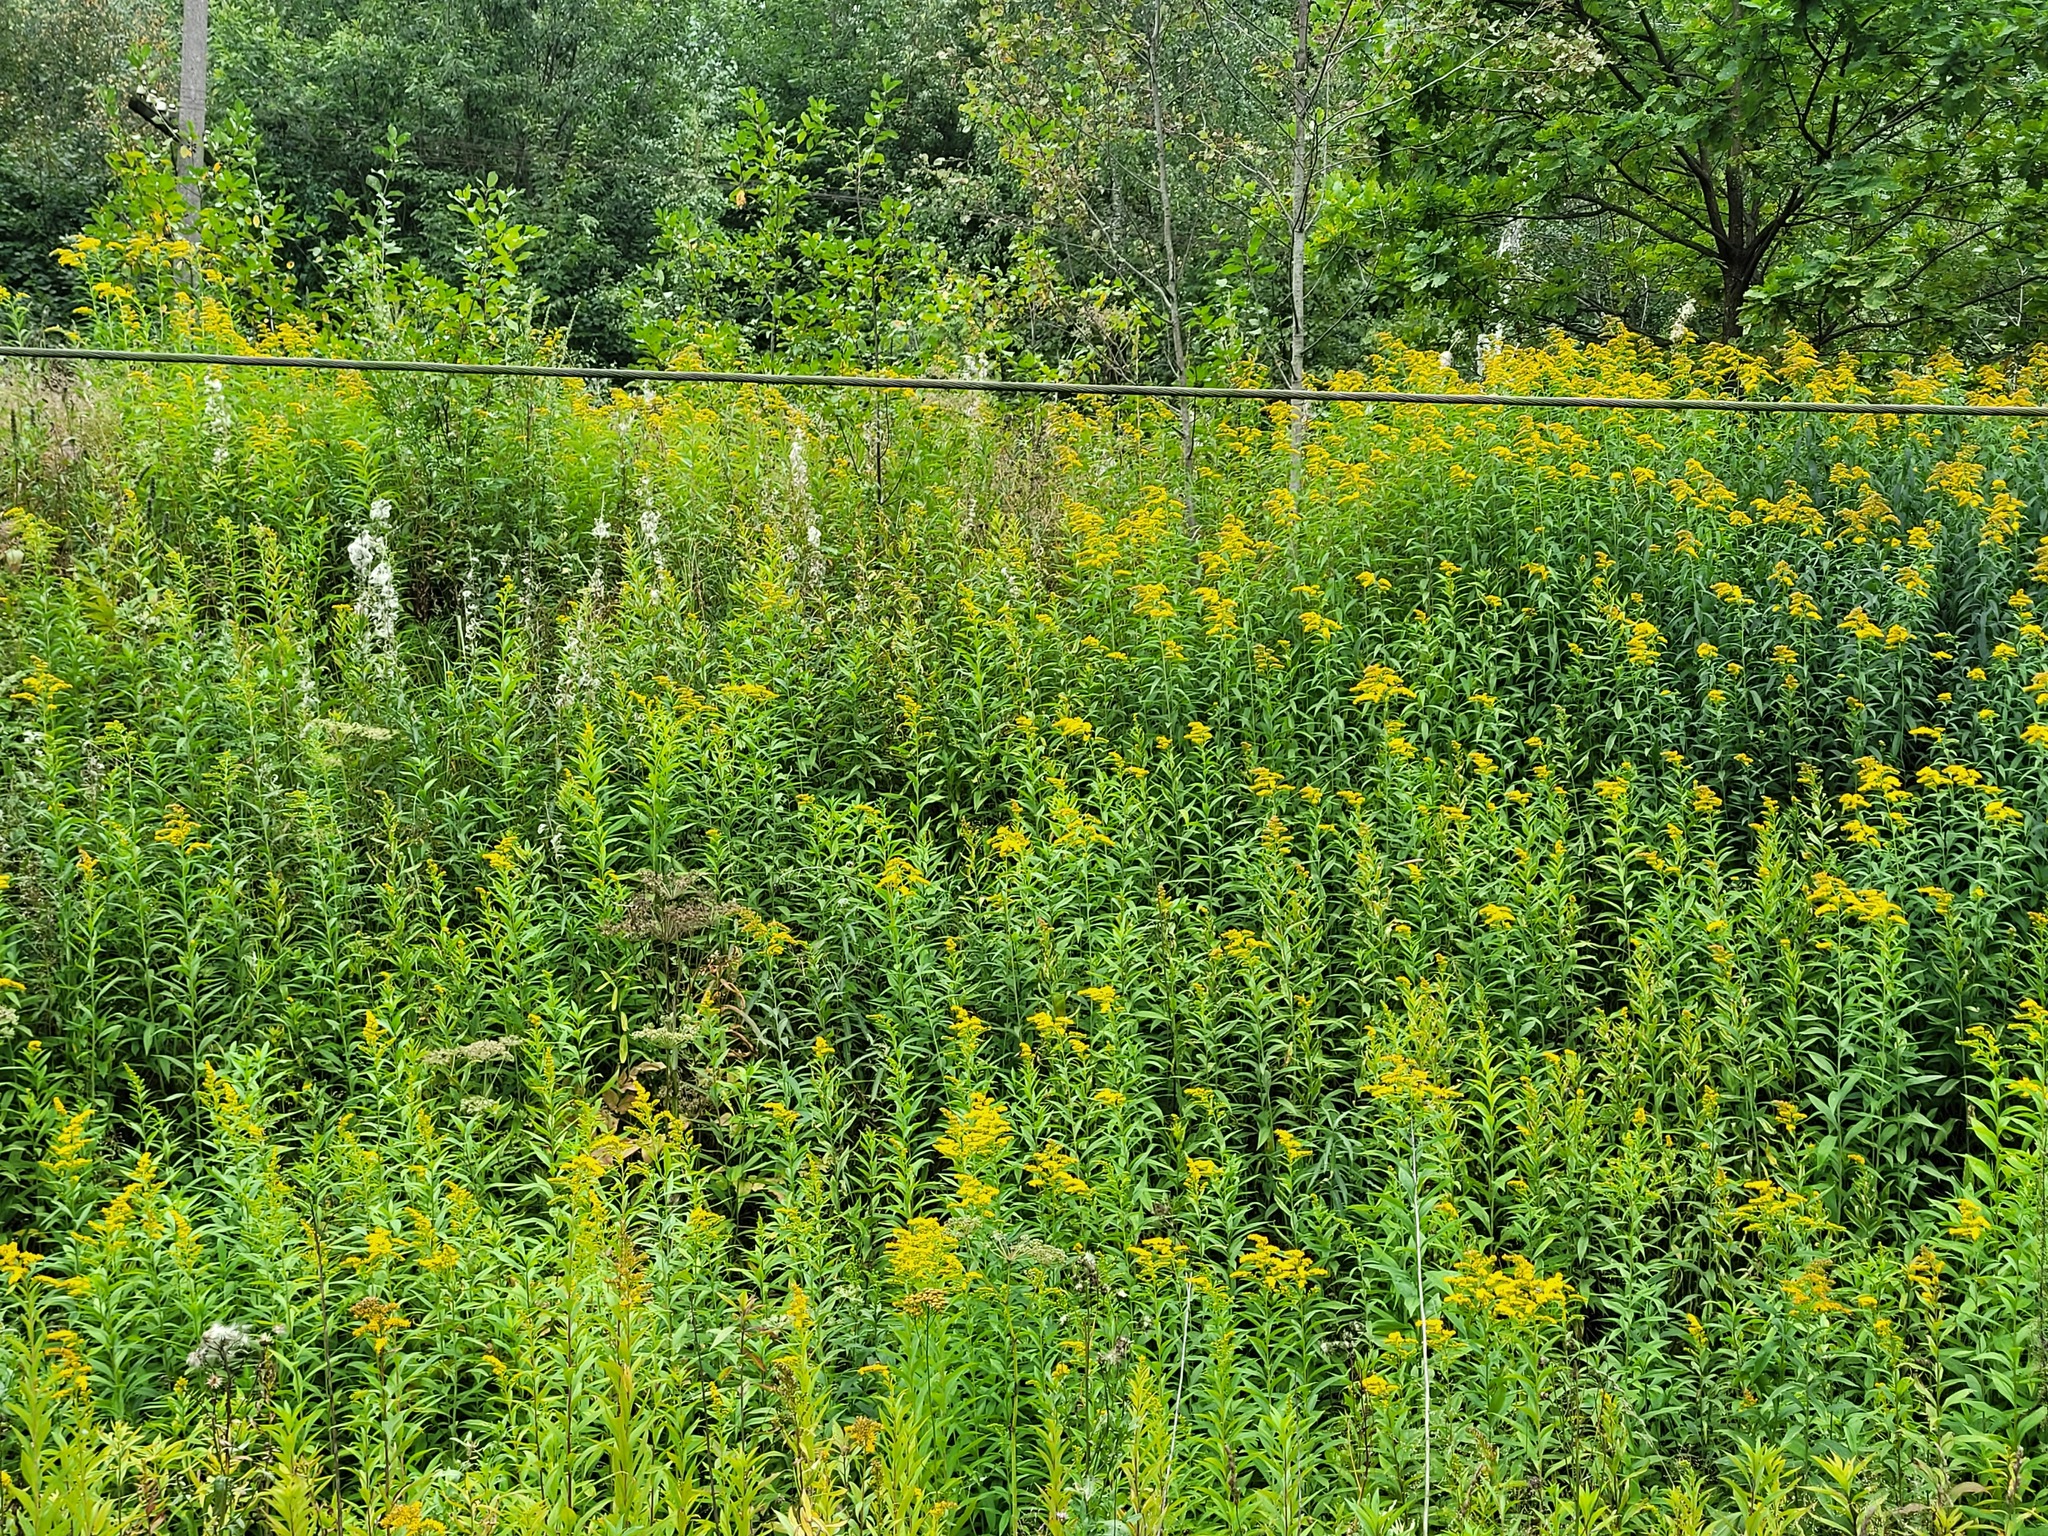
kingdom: Plantae
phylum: Tracheophyta
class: Magnoliopsida
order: Asterales
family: Asteraceae
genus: Solidago
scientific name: Solidago gigantea
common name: Giant goldenrod
